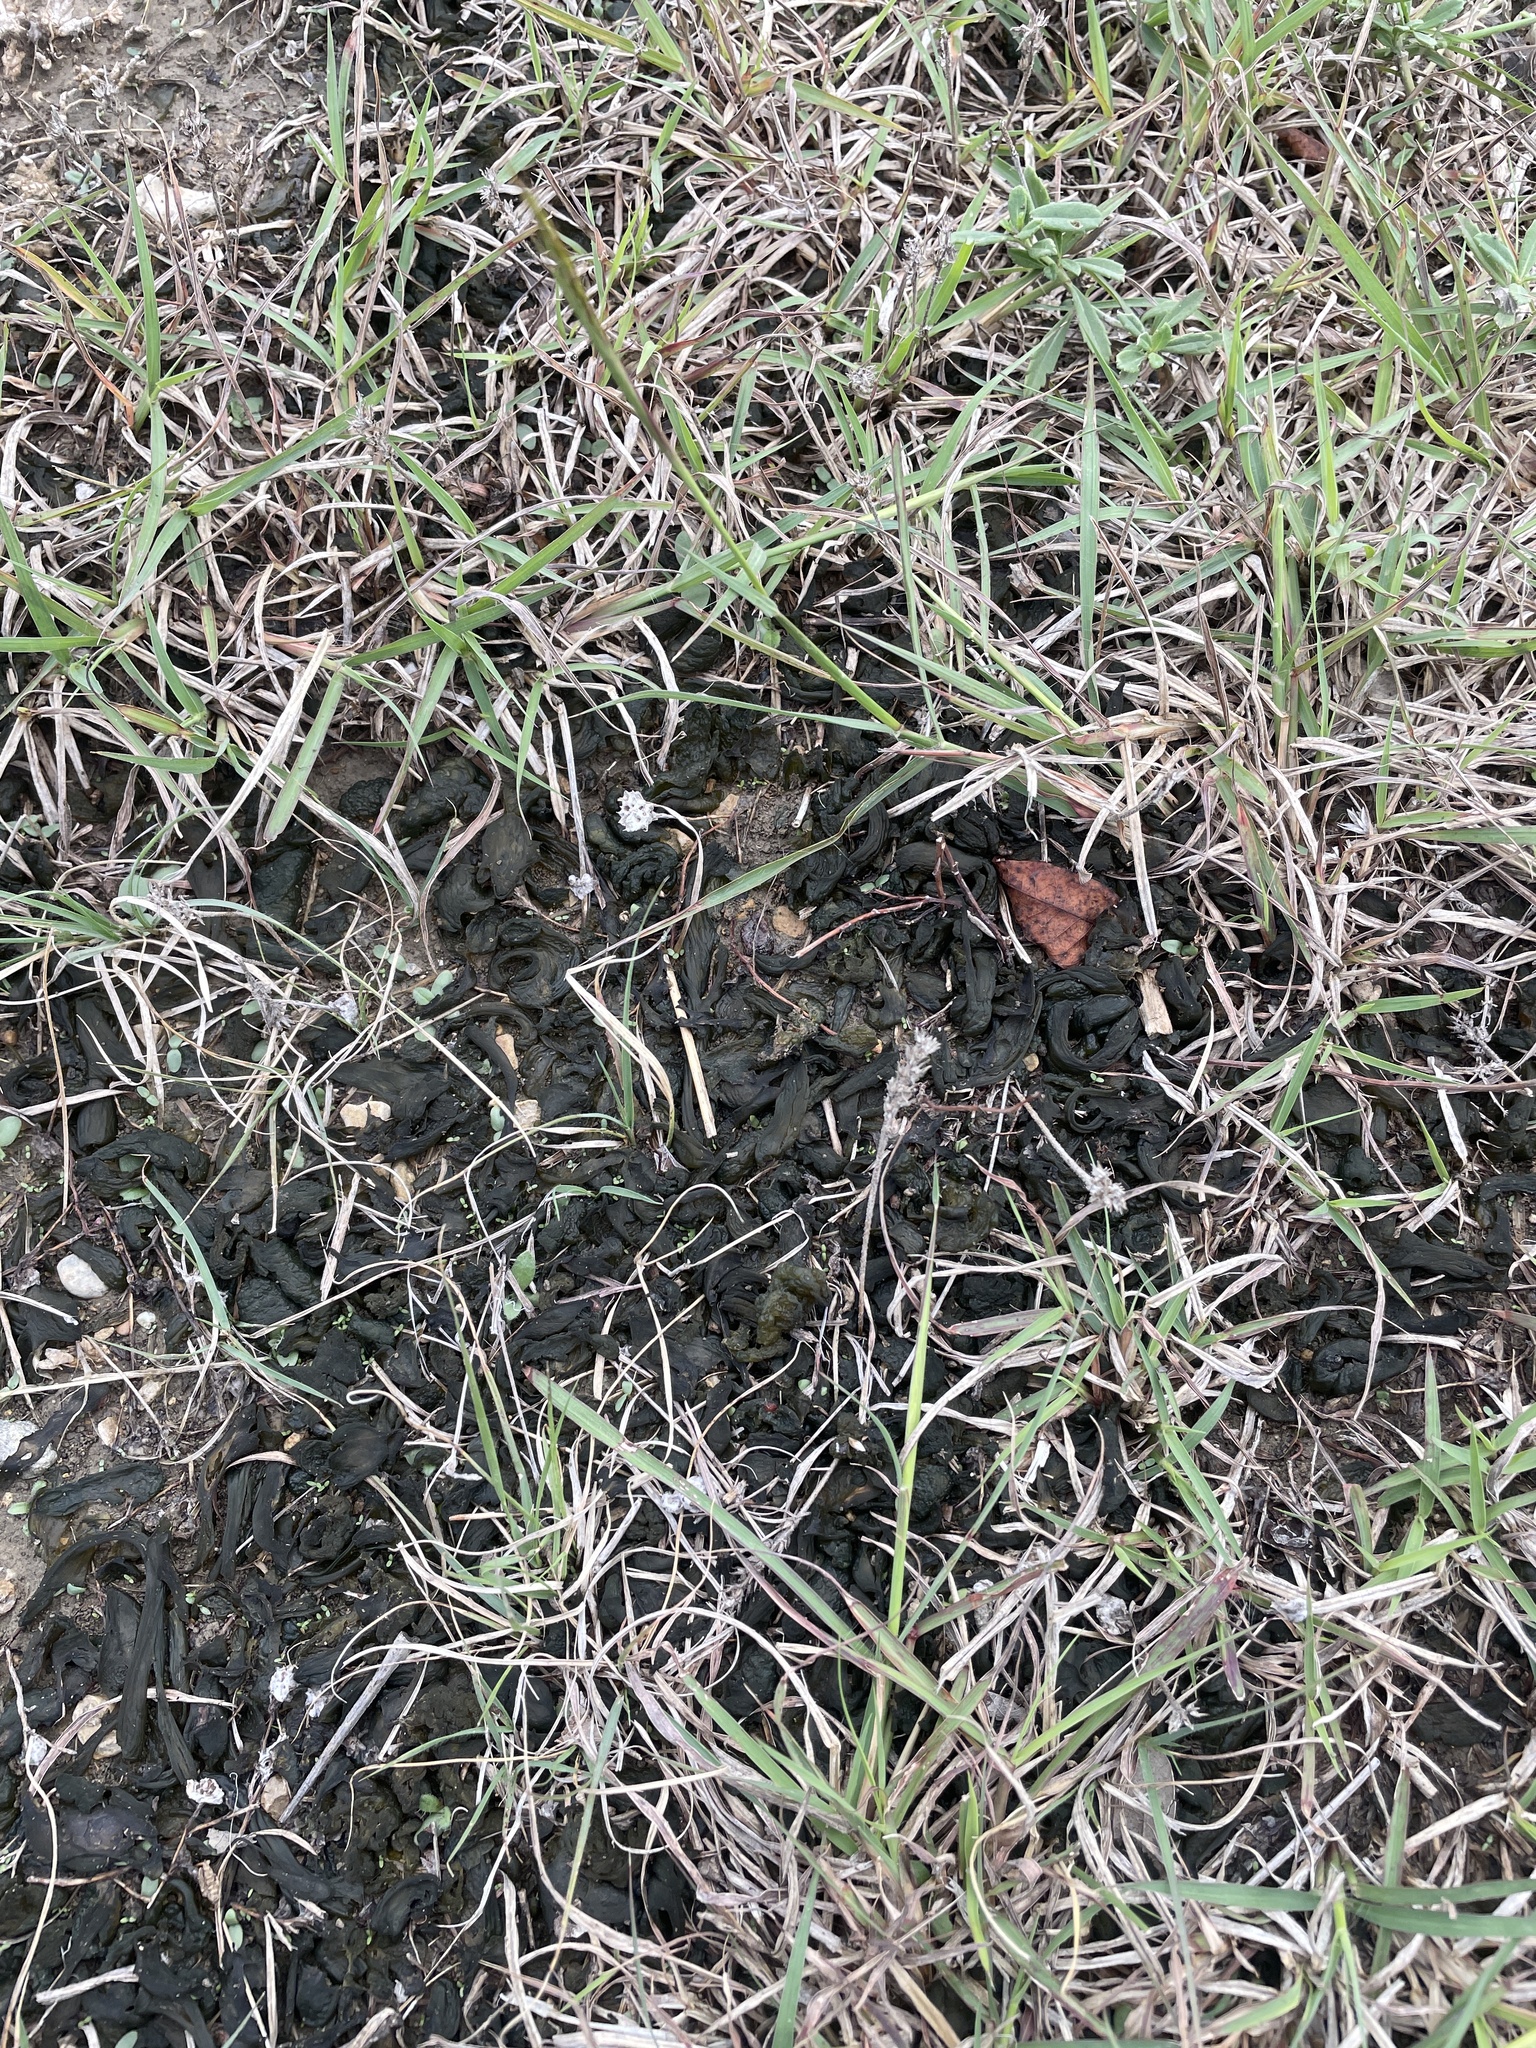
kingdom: Bacteria
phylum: Cyanobacteria
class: Cyanobacteriia
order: Cyanobacteriales
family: Nostocaceae
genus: Nostoc
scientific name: Nostoc commune
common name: Star jelly
